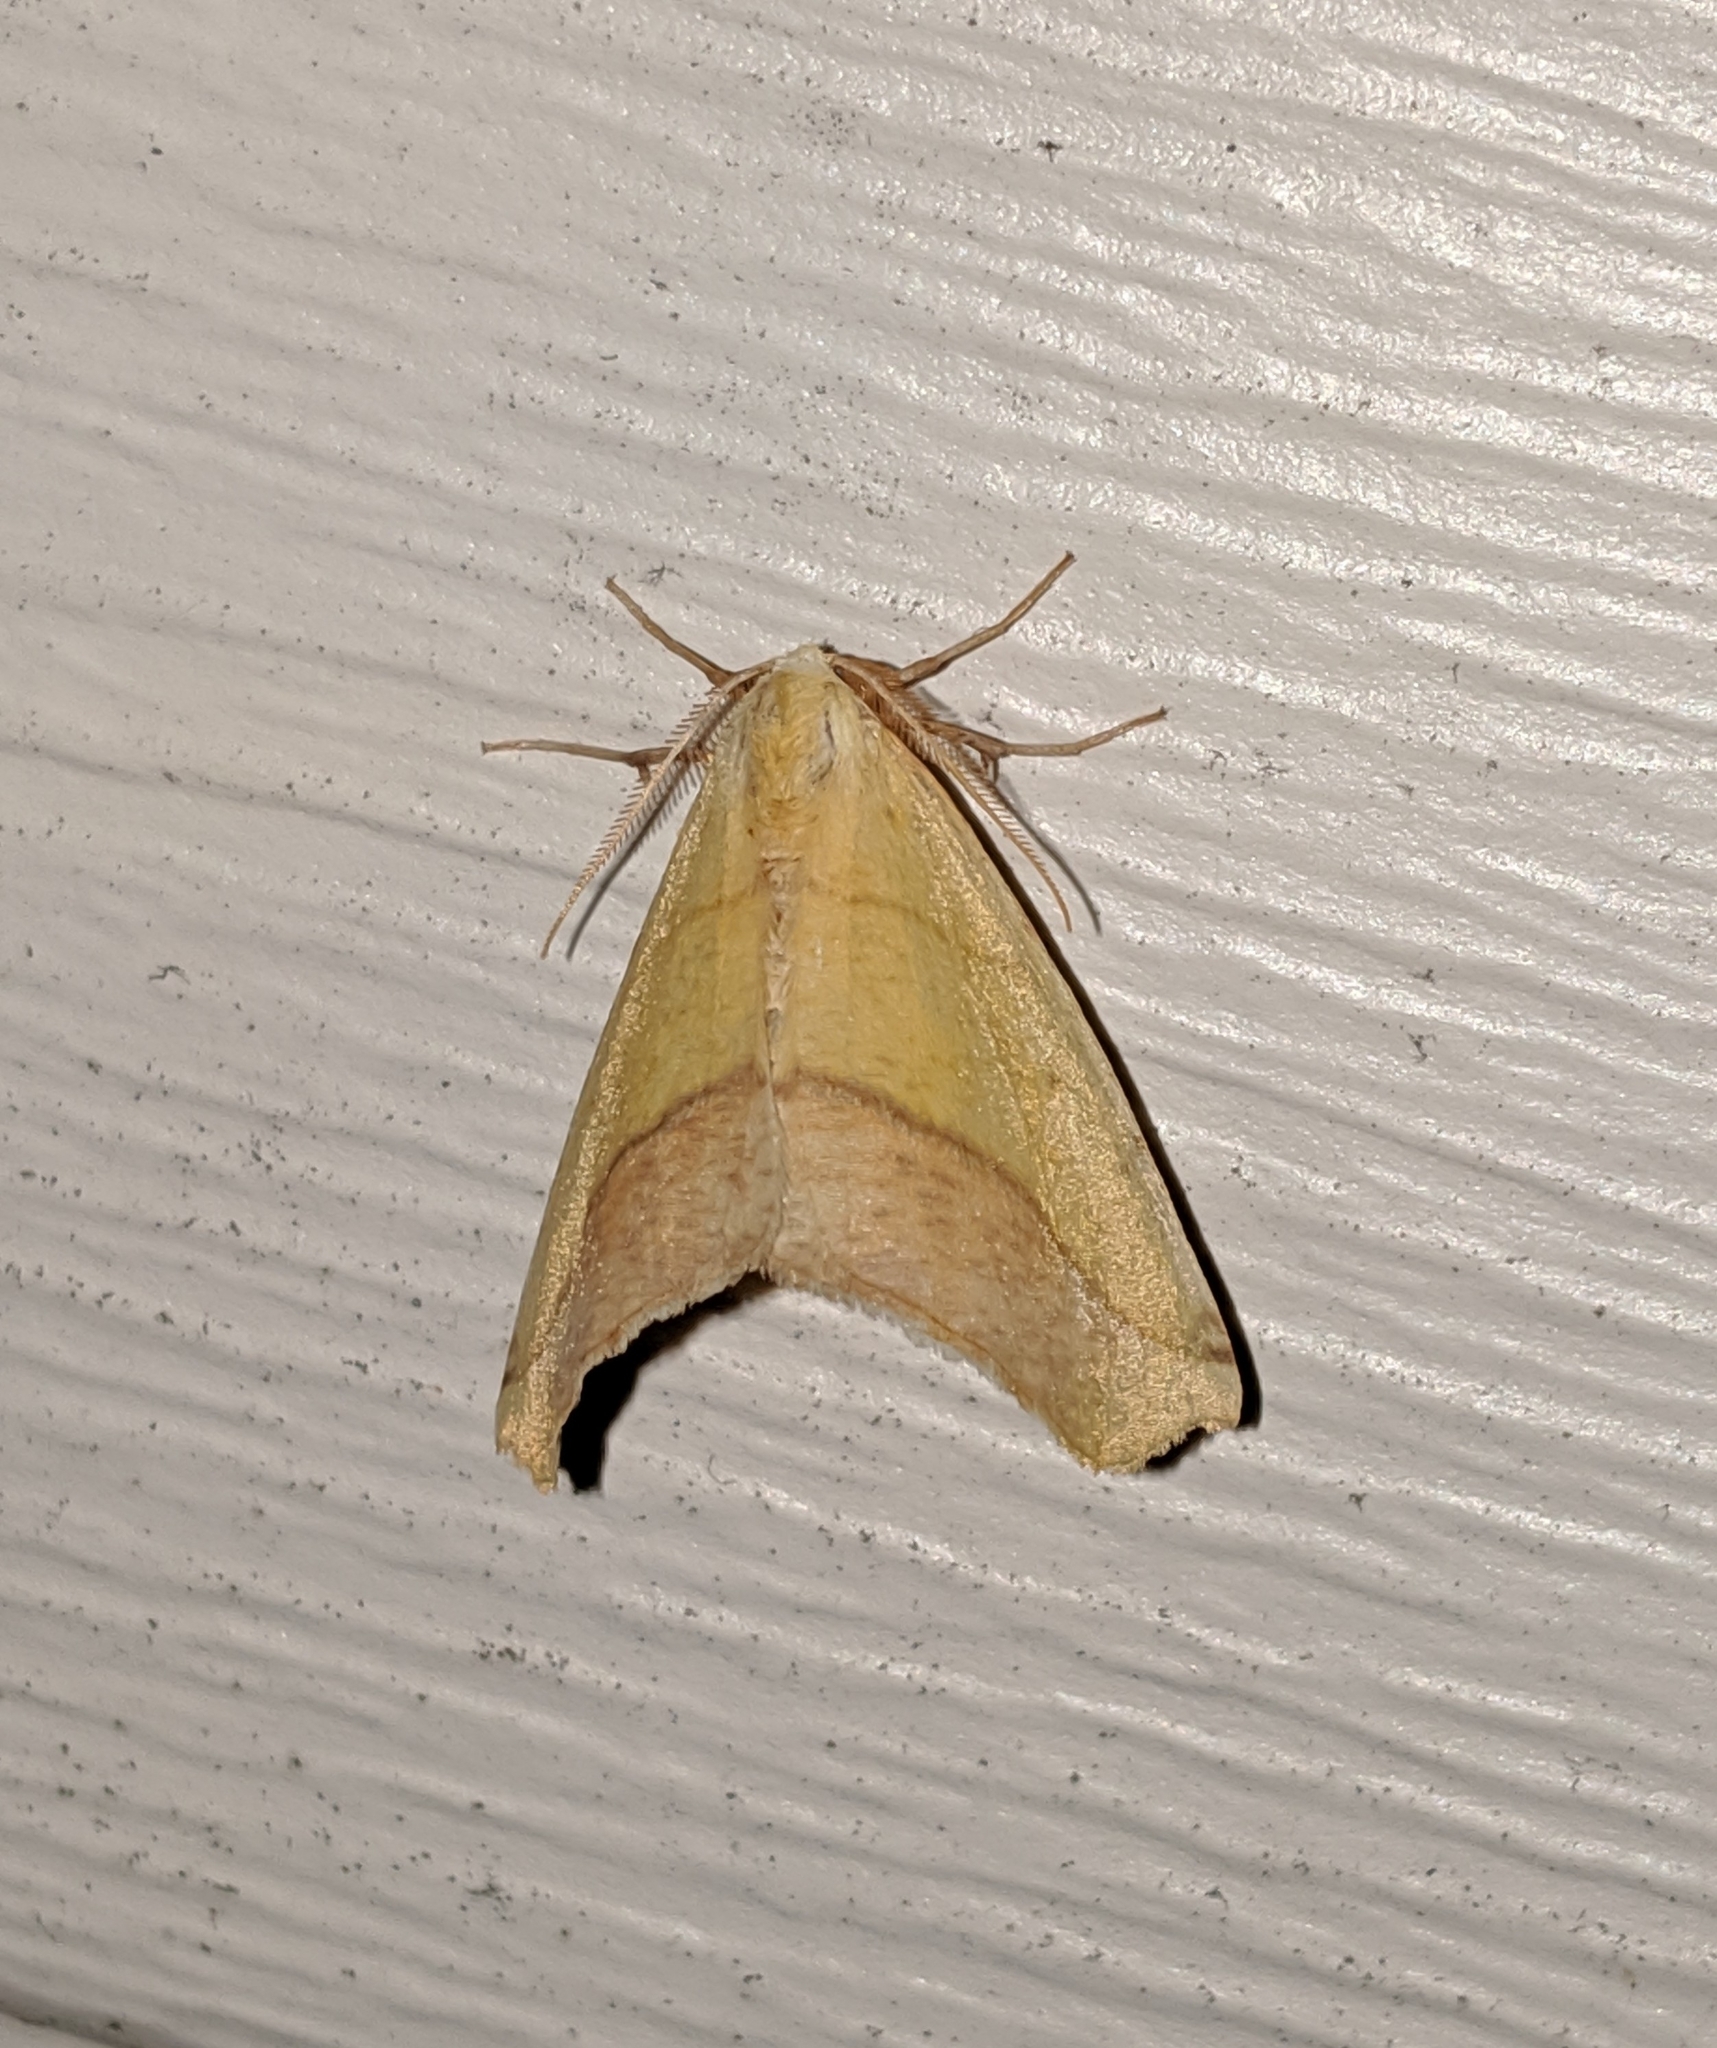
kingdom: Animalia
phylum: Arthropoda
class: Insecta
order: Lepidoptera
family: Geometridae
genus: Sicya
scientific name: Sicya macularia
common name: Sharp-lined yellow
